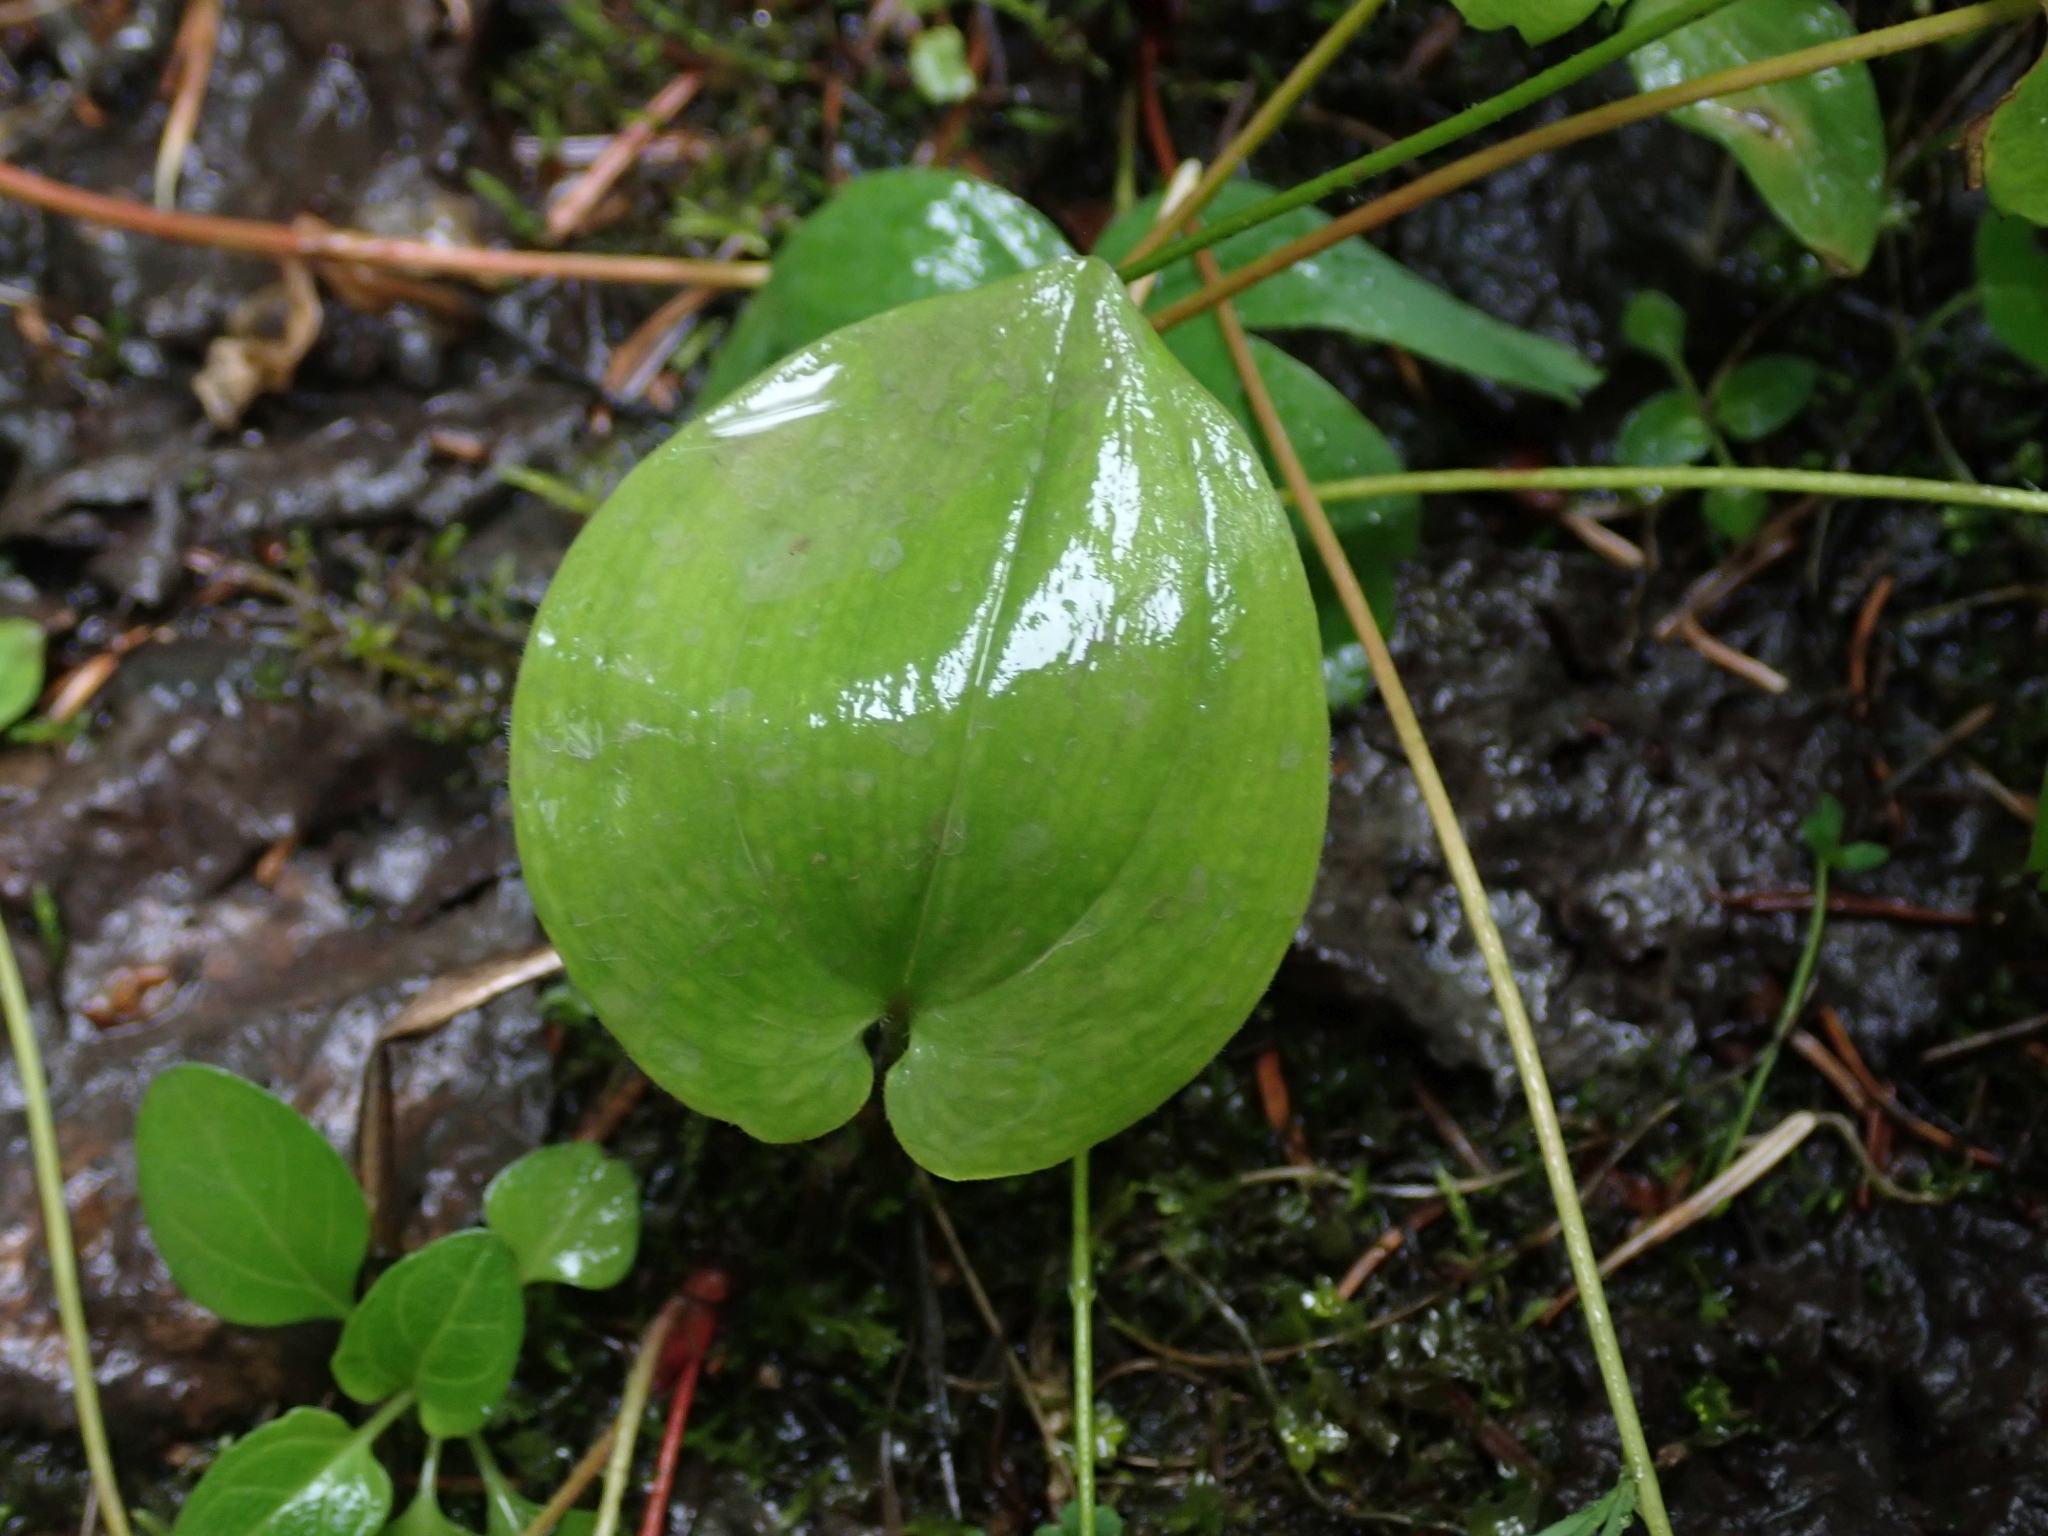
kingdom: Plantae
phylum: Tracheophyta
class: Liliopsida
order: Asparagales
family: Asparagaceae
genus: Maianthemum
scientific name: Maianthemum canadense
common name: False lily-of-the-valley
